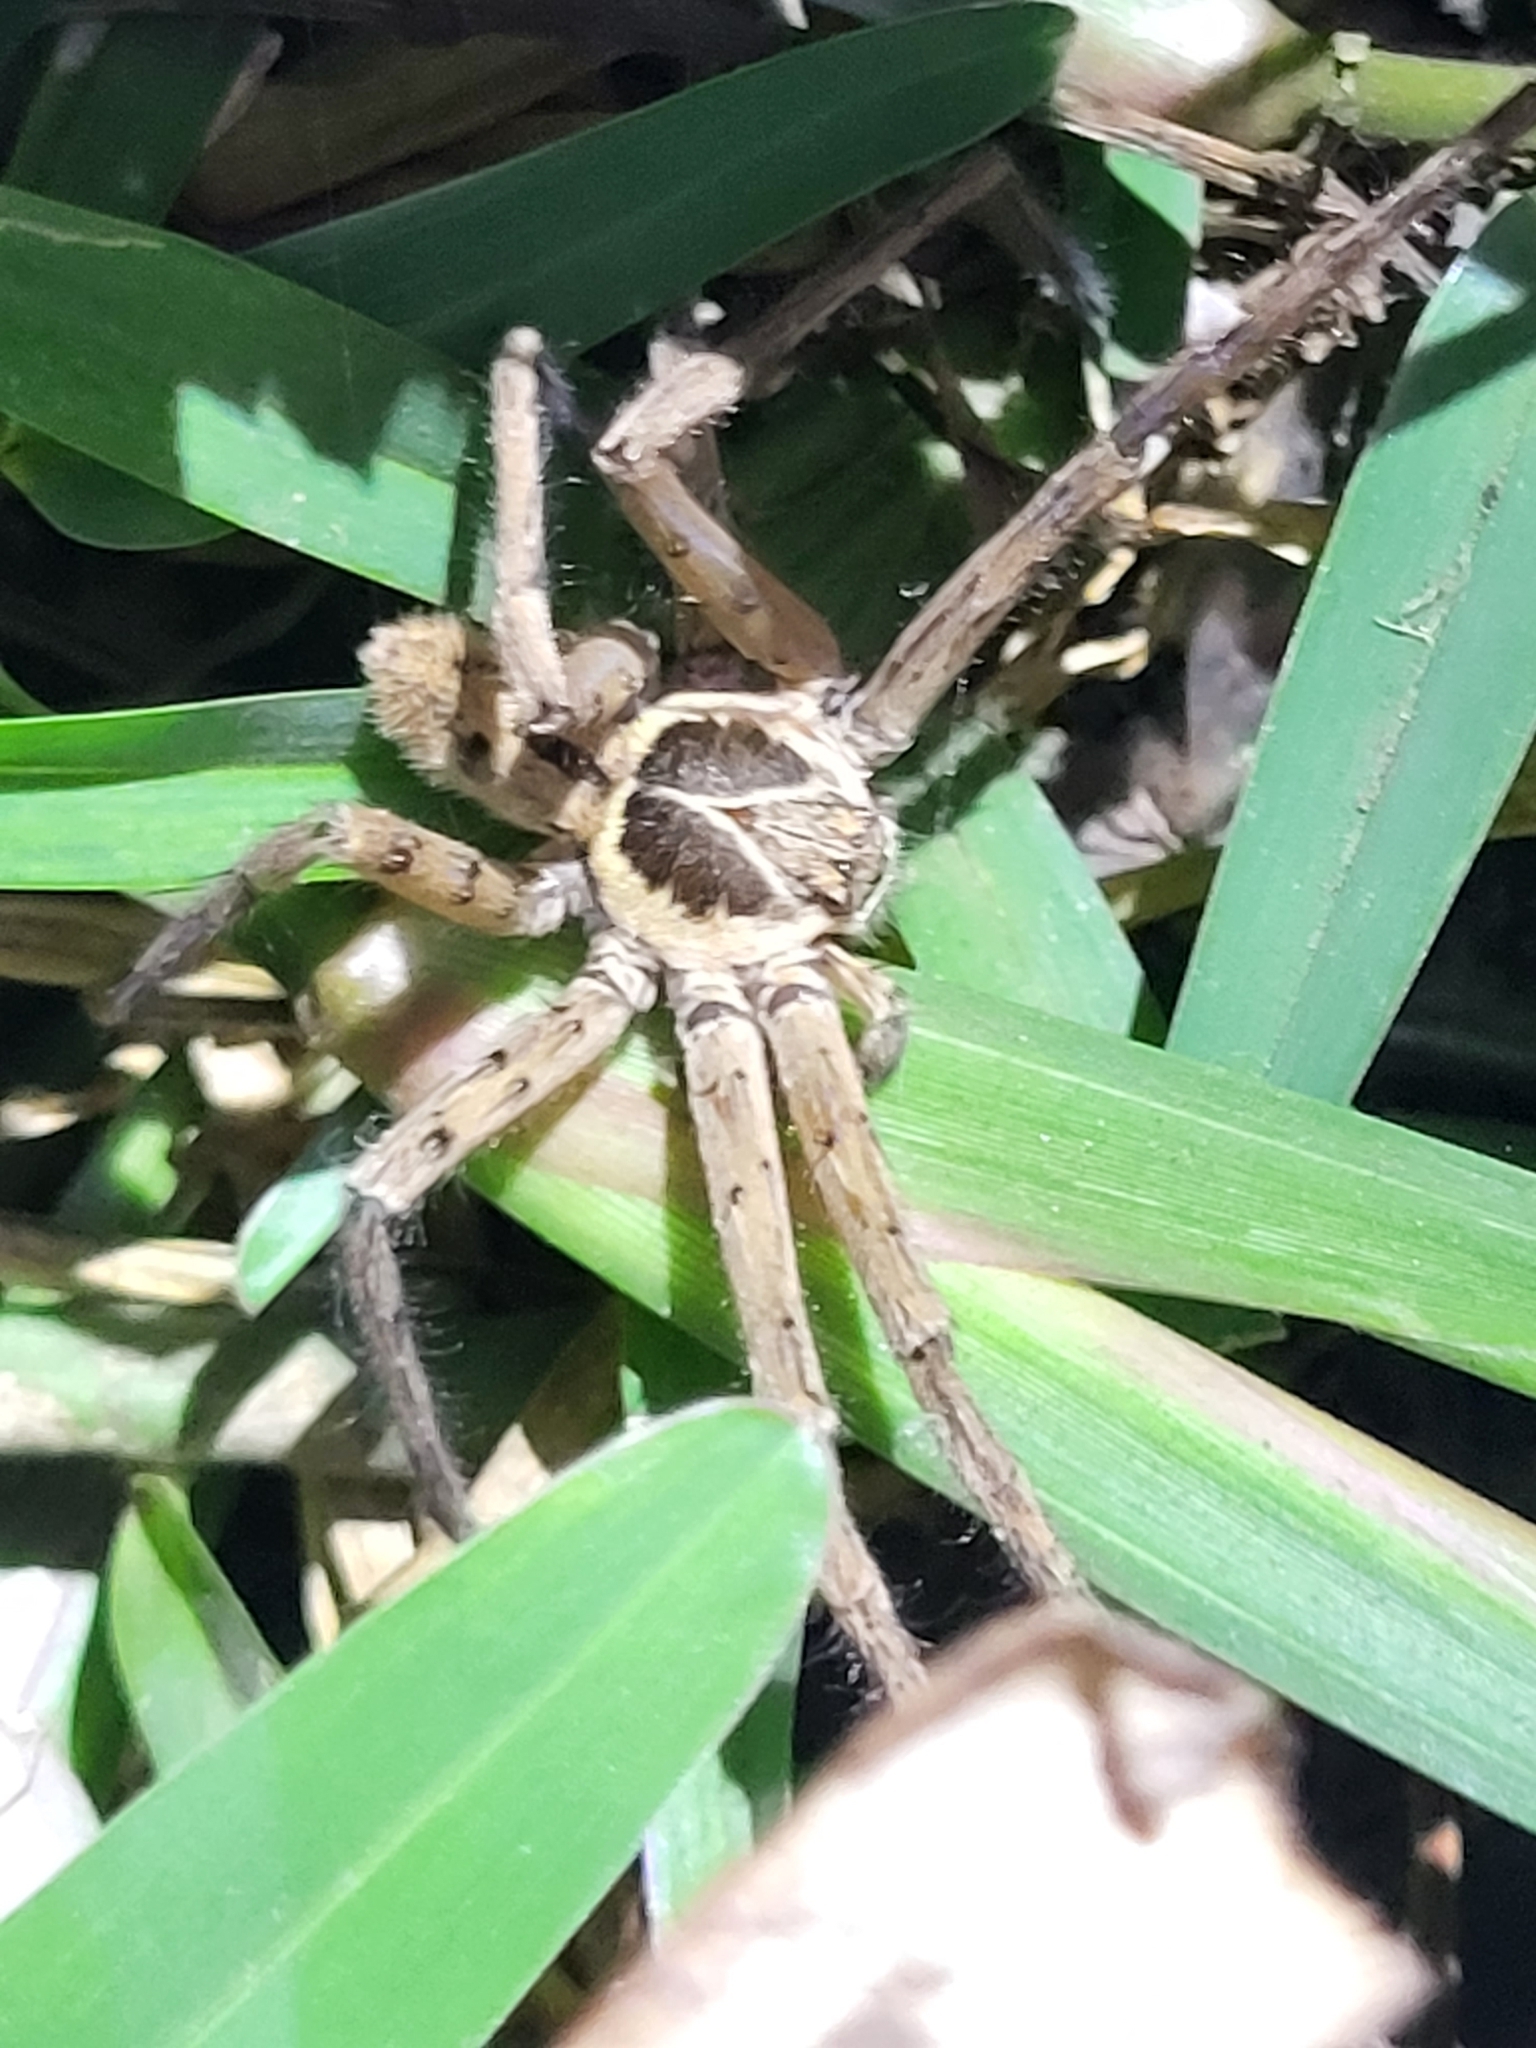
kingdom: Animalia
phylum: Arthropoda
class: Arachnida
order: Araneae
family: Sparassidae
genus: Heteropoda
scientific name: Heteropoda venatoria
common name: Huntsman spider
